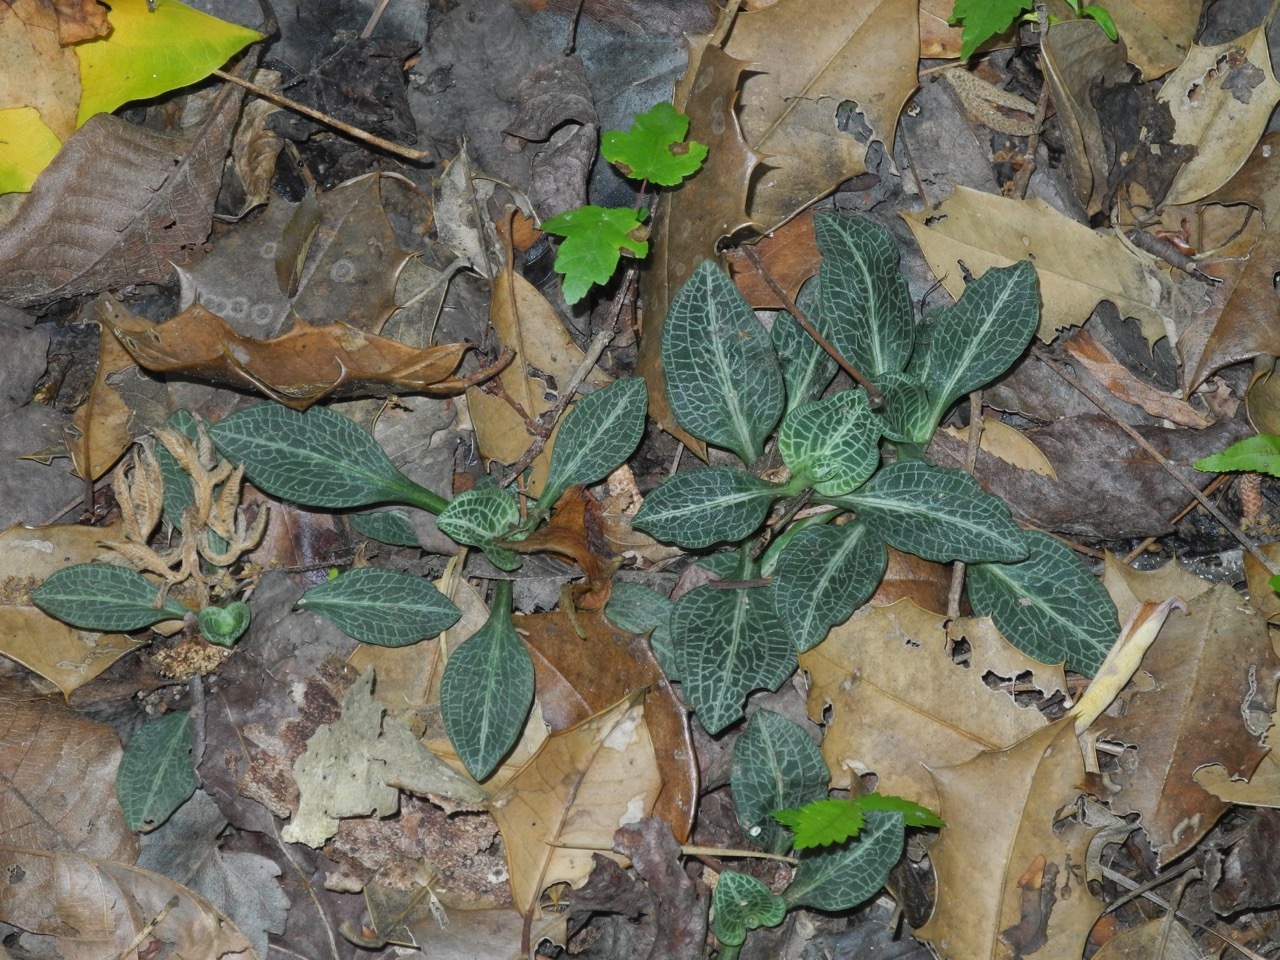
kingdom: Plantae
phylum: Tracheophyta
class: Liliopsida
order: Asparagales
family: Orchidaceae
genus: Goodyera
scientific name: Goodyera pubescens
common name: Downy rattlesnake-plantain
